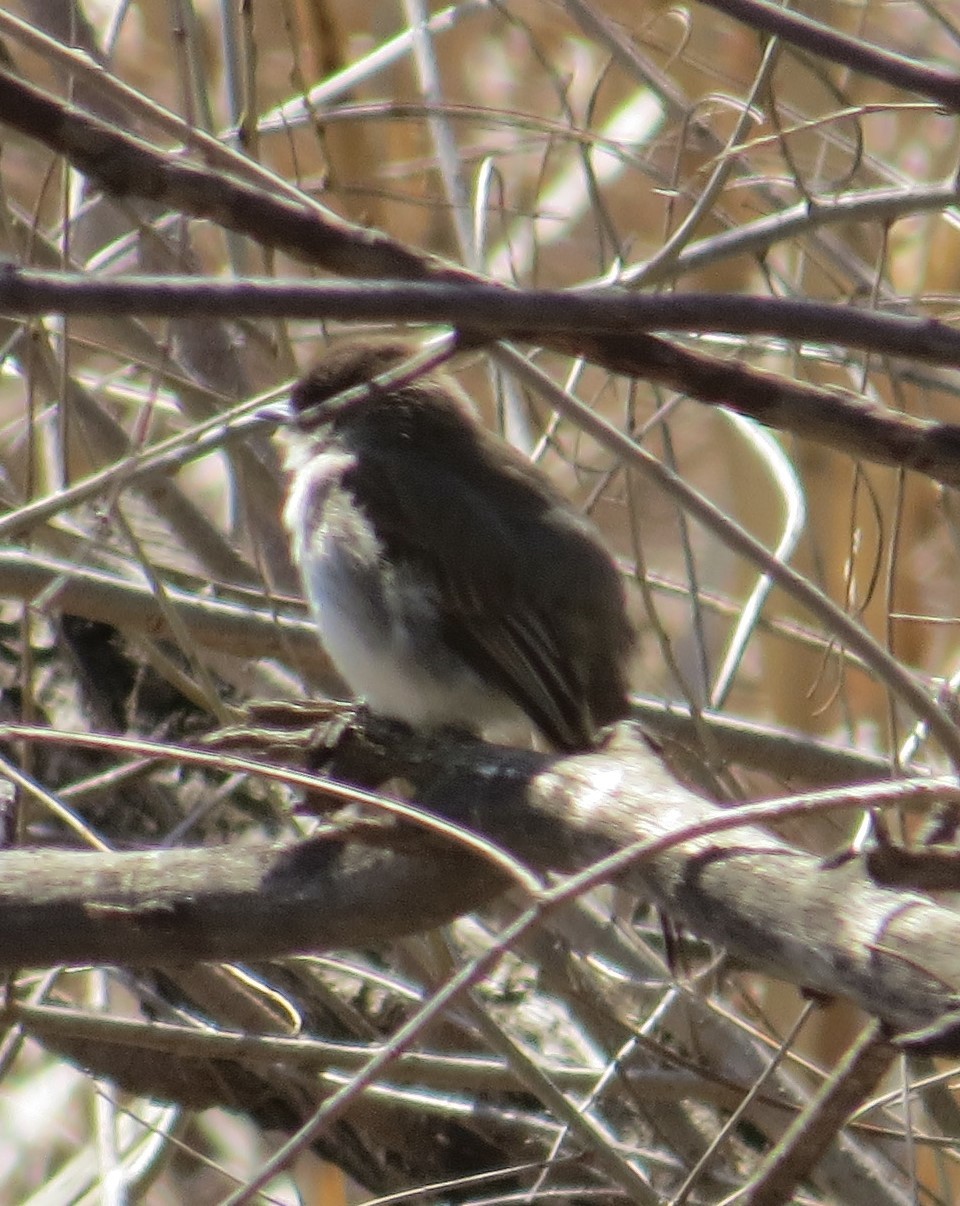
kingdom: Animalia
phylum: Chordata
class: Aves
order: Passeriformes
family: Tyrannidae
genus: Sayornis
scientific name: Sayornis phoebe
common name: Eastern phoebe
